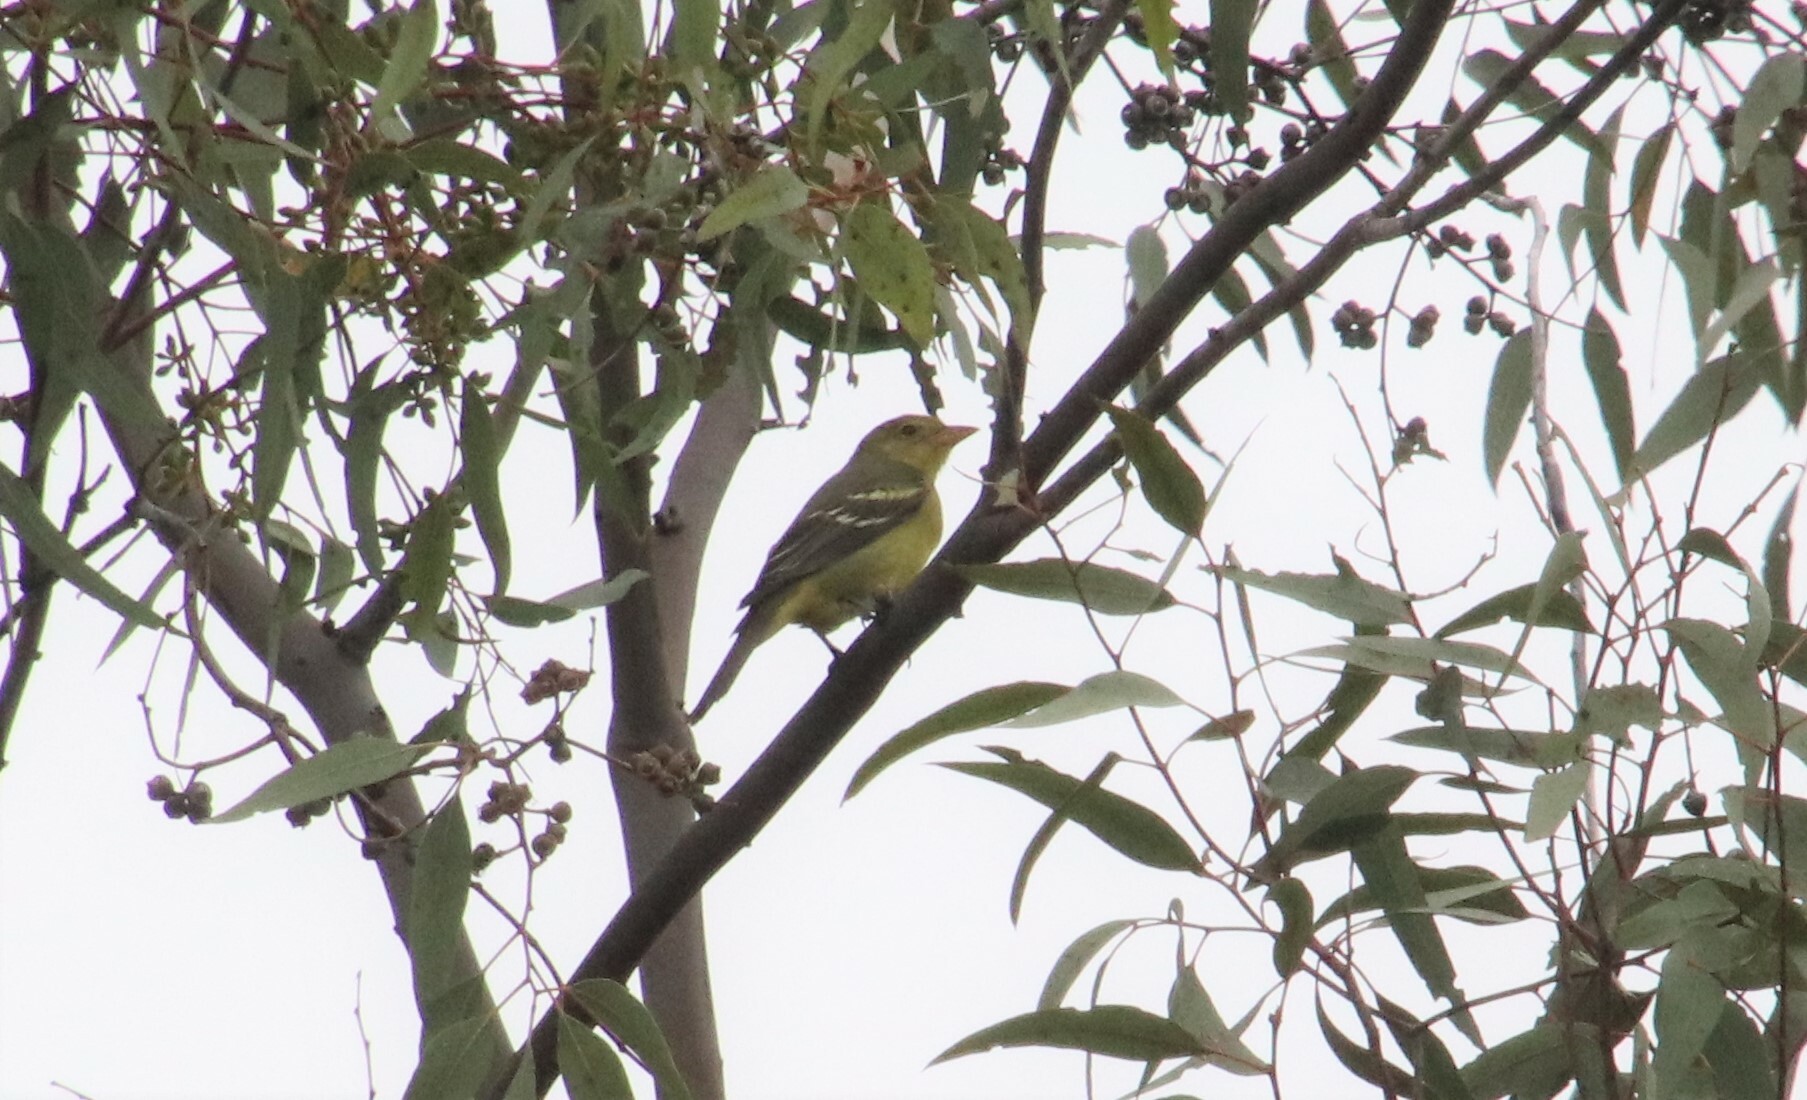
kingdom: Animalia
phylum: Chordata
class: Aves
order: Passeriformes
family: Cardinalidae
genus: Piranga
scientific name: Piranga ludoviciana
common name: Western tanager
